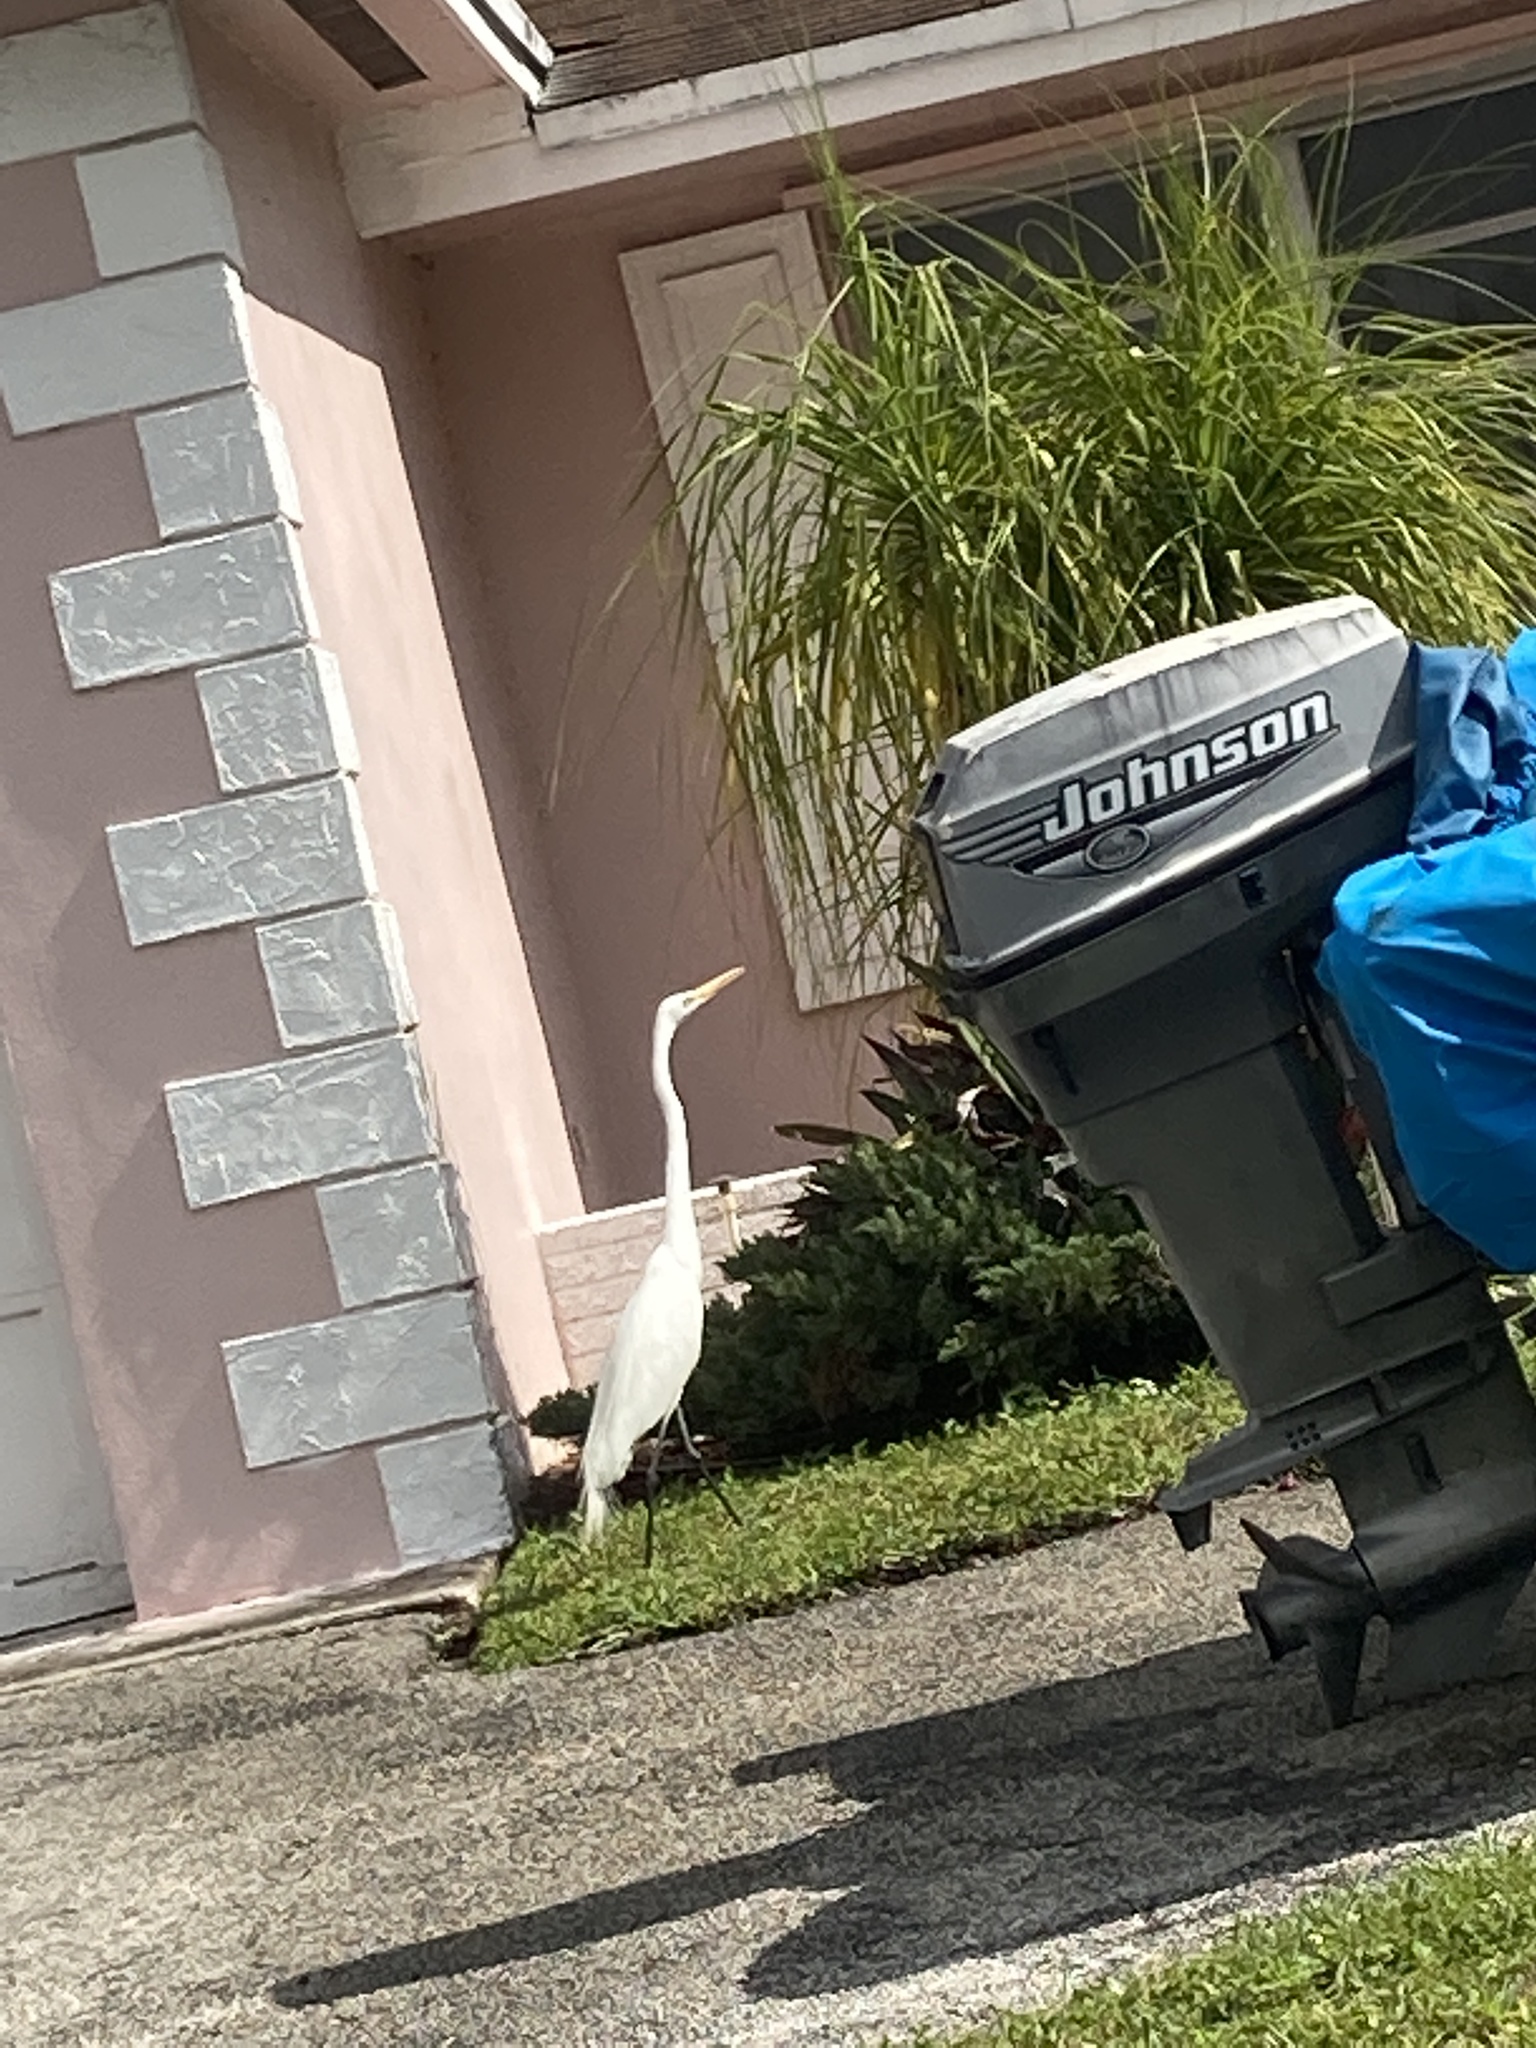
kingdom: Animalia
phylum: Chordata
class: Aves
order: Pelecaniformes
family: Ardeidae
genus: Ardea
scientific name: Ardea alba
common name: Great egret
